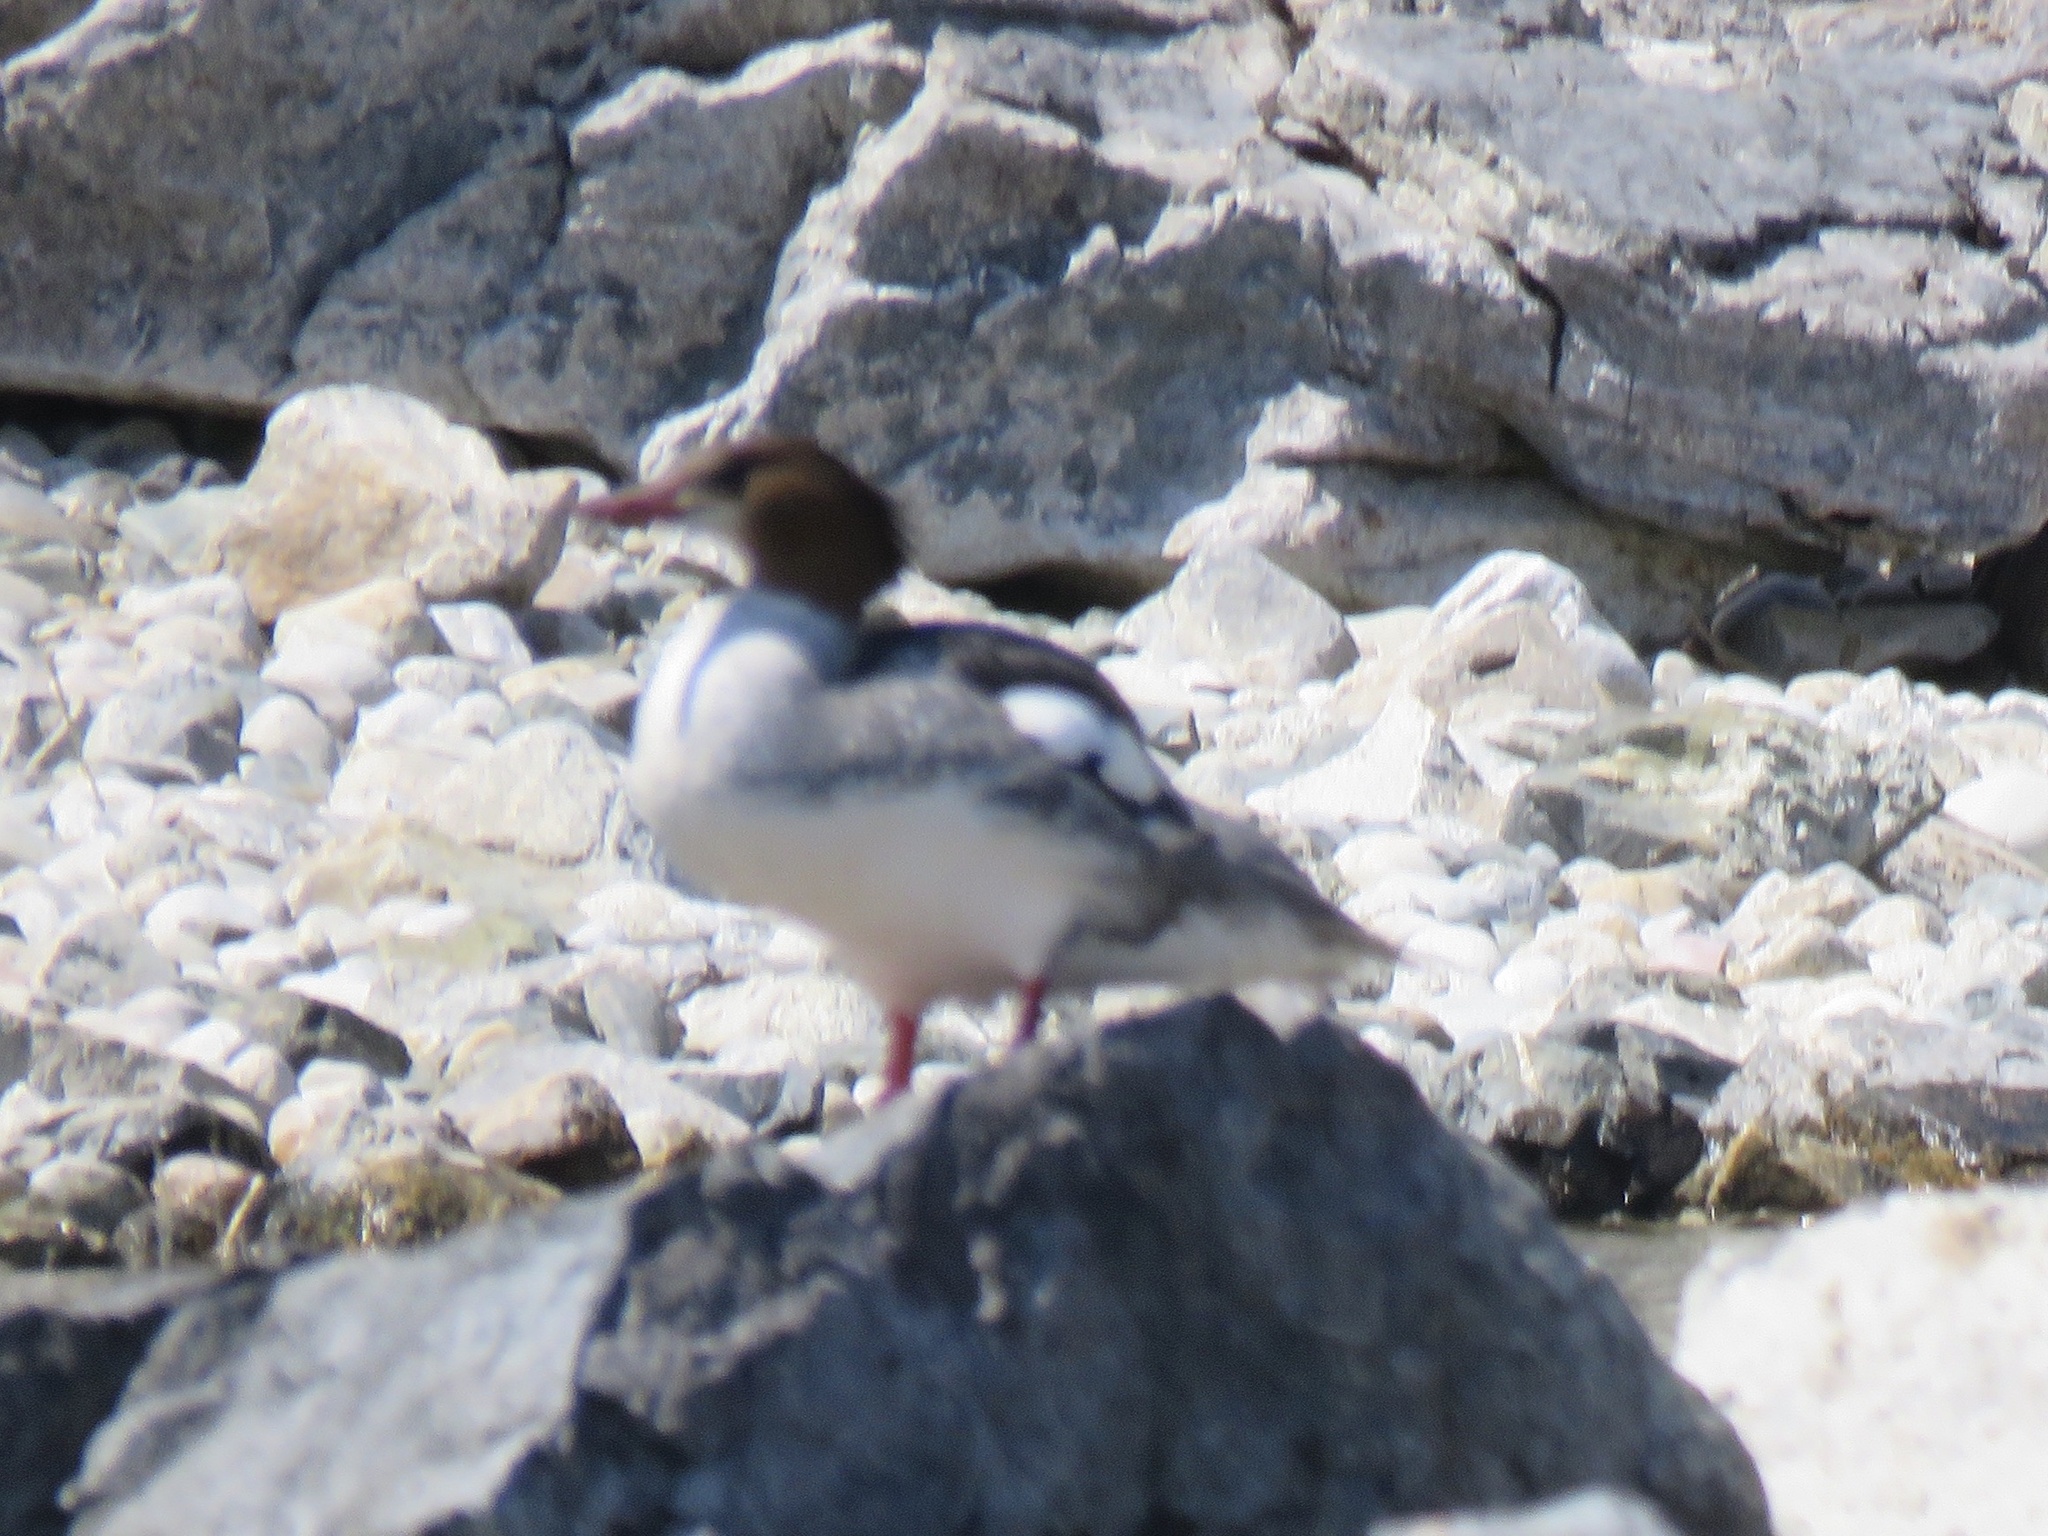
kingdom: Animalia
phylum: Chordata
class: Aves
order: Anseriformes
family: Anatidae
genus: Mergus
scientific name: Mergus merganser
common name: Common merganser
